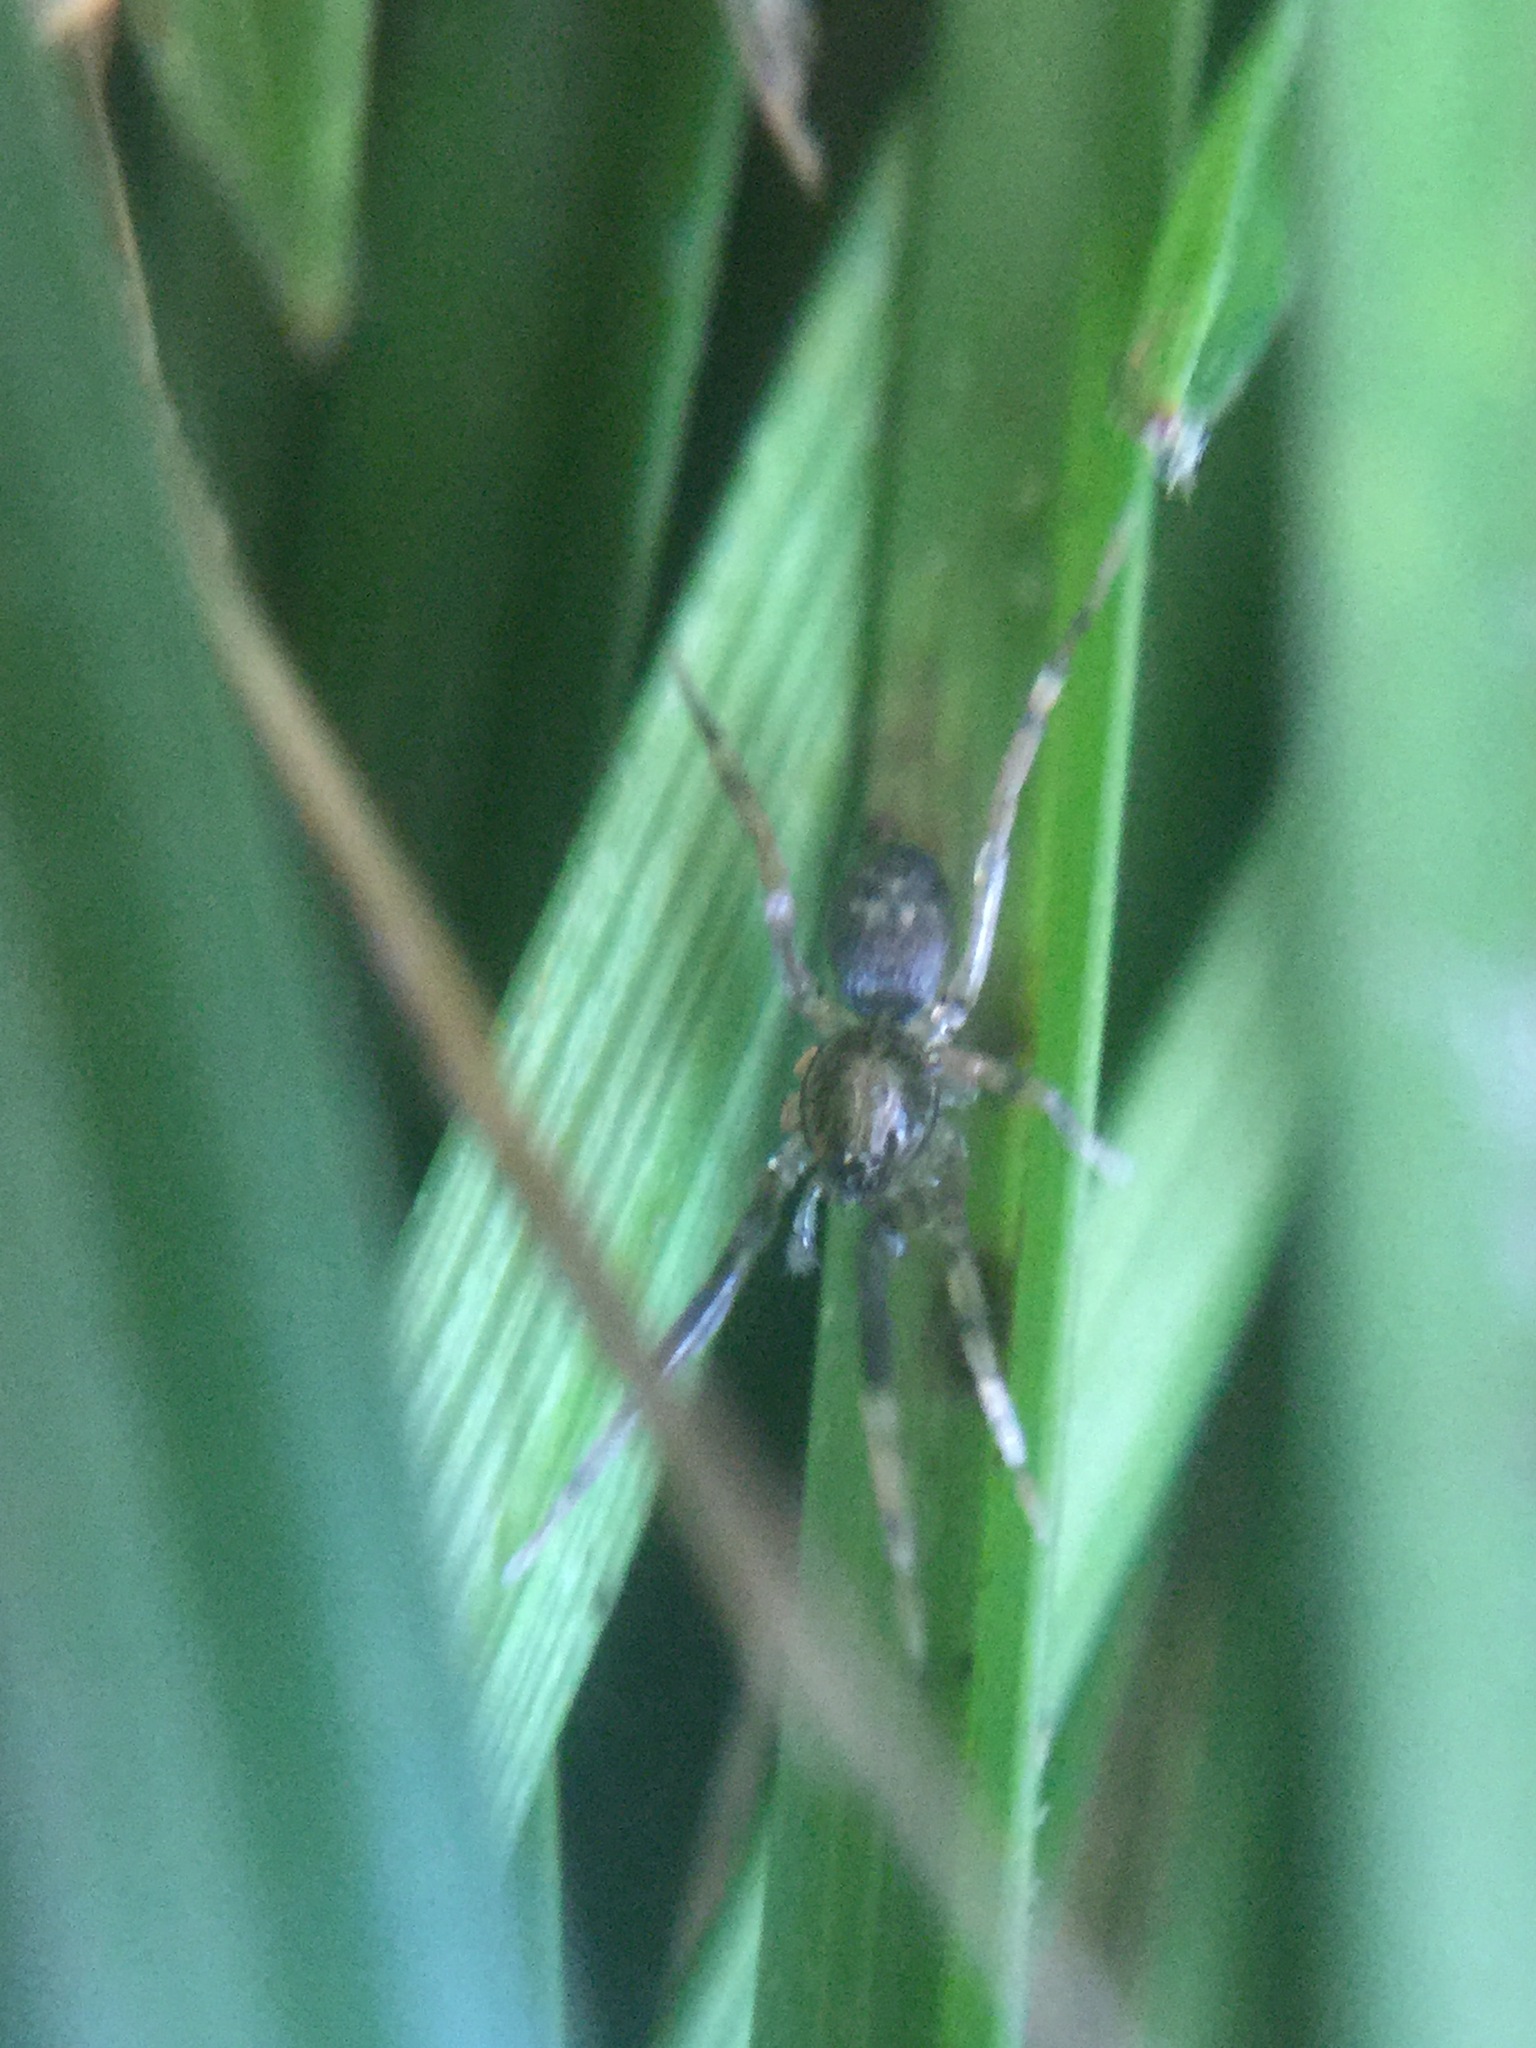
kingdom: Animalia
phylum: Arthropoda
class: Arachnida
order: Araneae
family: Phrurolithidae
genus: Phrurotimpus
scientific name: Phrurotimpus borealis
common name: Greater ant-mimic corinne spider
